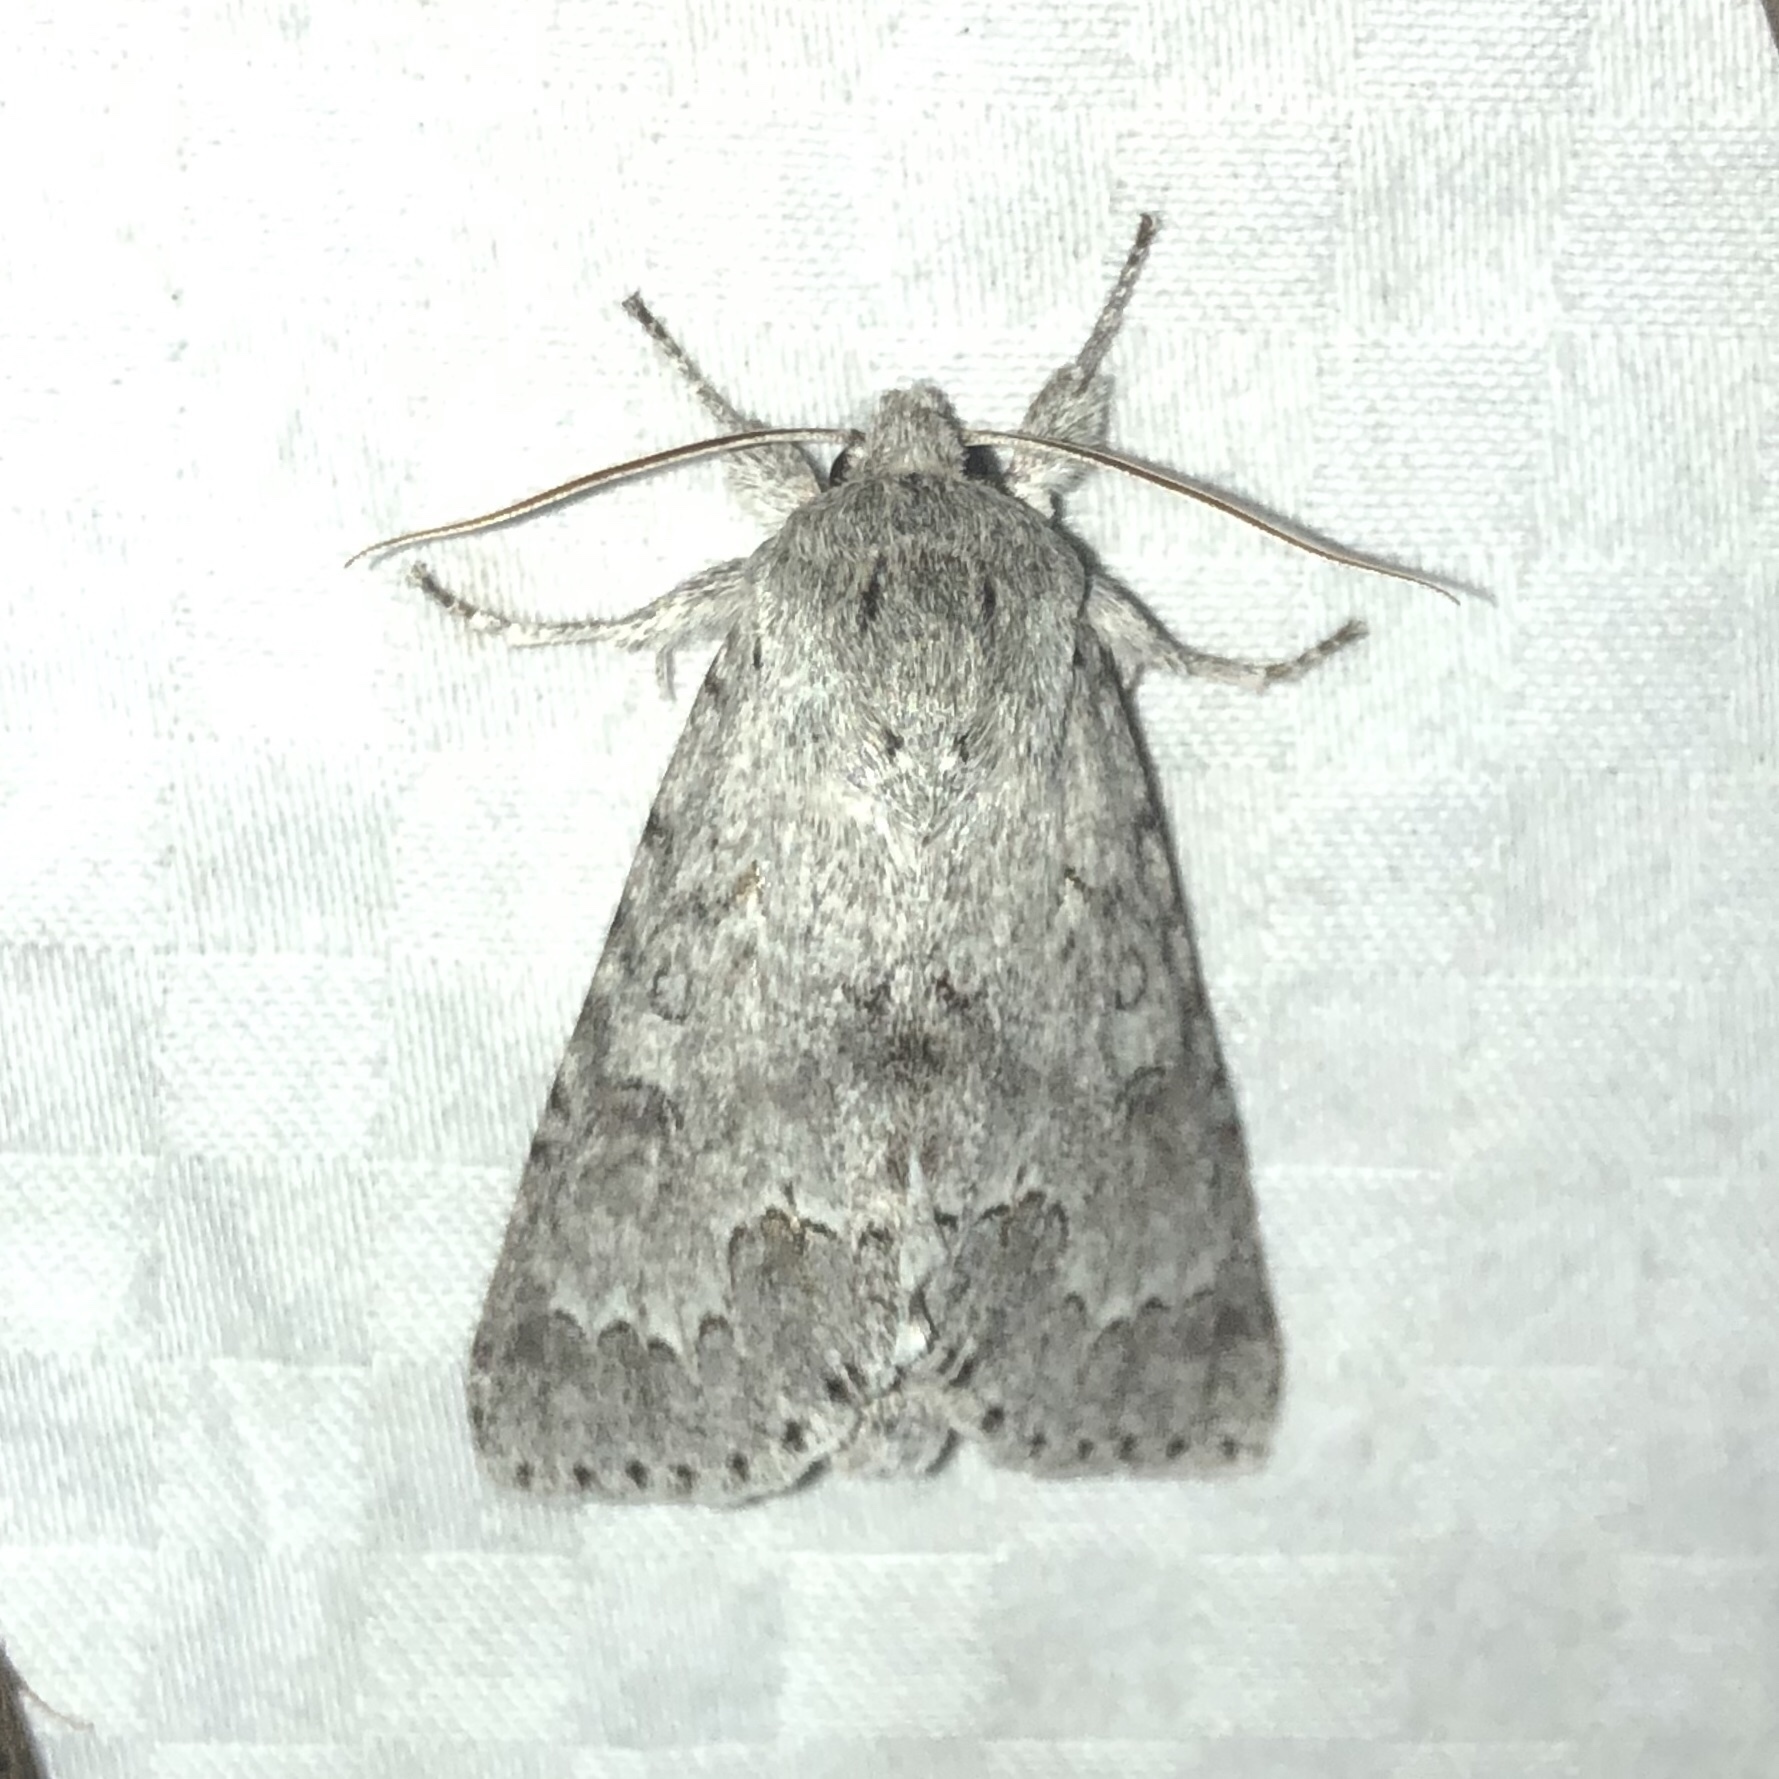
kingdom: Animalia
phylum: Arthropoda
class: Insecta
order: Lepidoptera
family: Noctuidae
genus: Acronicta
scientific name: Acronicta insita
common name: Large gray dagger
